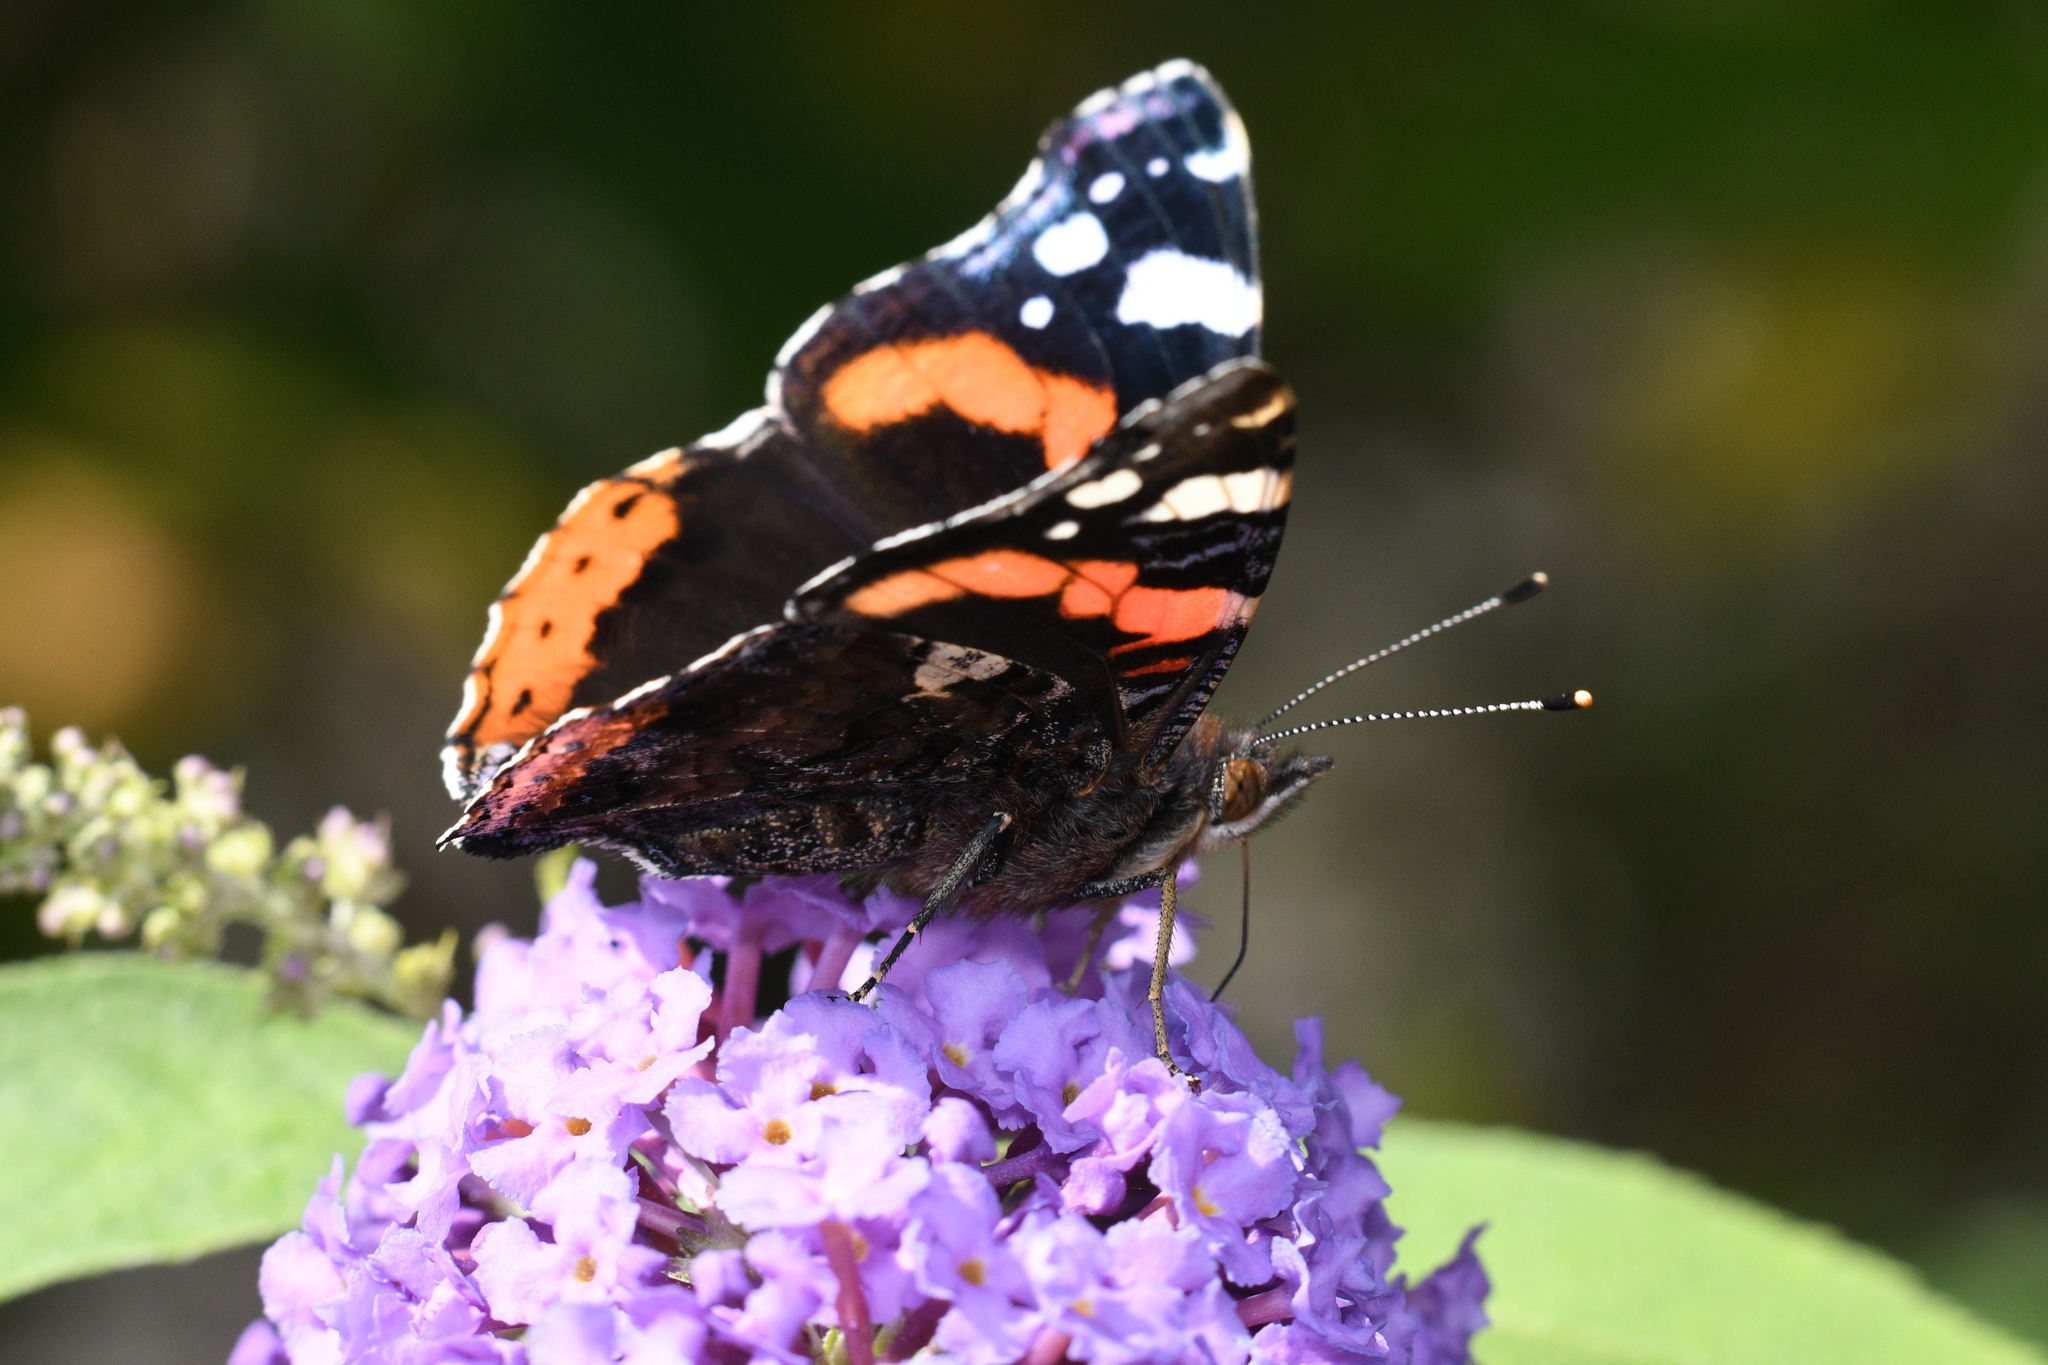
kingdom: Animalia
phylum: Arthropoda
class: Insecta
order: Lepidoptera
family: Nymphalidae
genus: Vanessa
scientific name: Vanessa atalanta
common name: Red admiral
